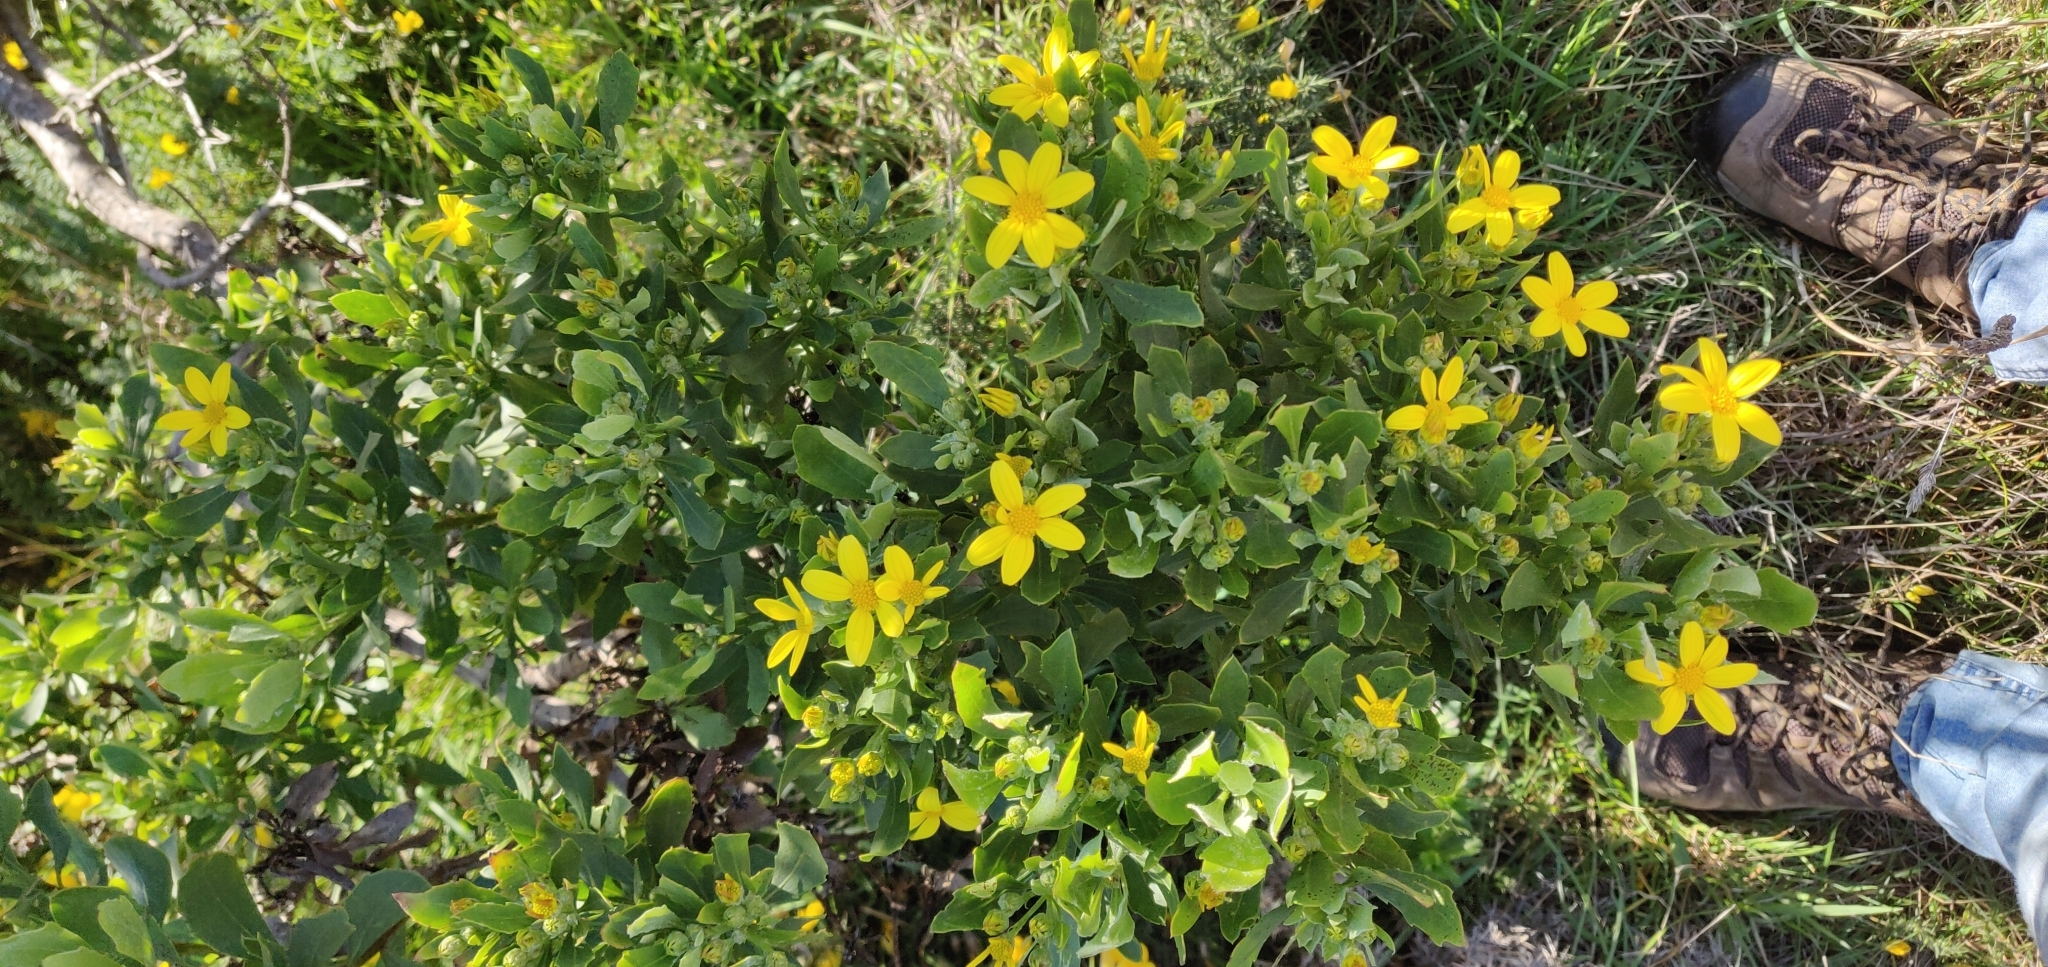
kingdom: Plantae
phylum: Tracheophyta
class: Magnoliopsida
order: Asterales
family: Asteraceae
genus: Osteospermum
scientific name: Osteospermum moniliferum
